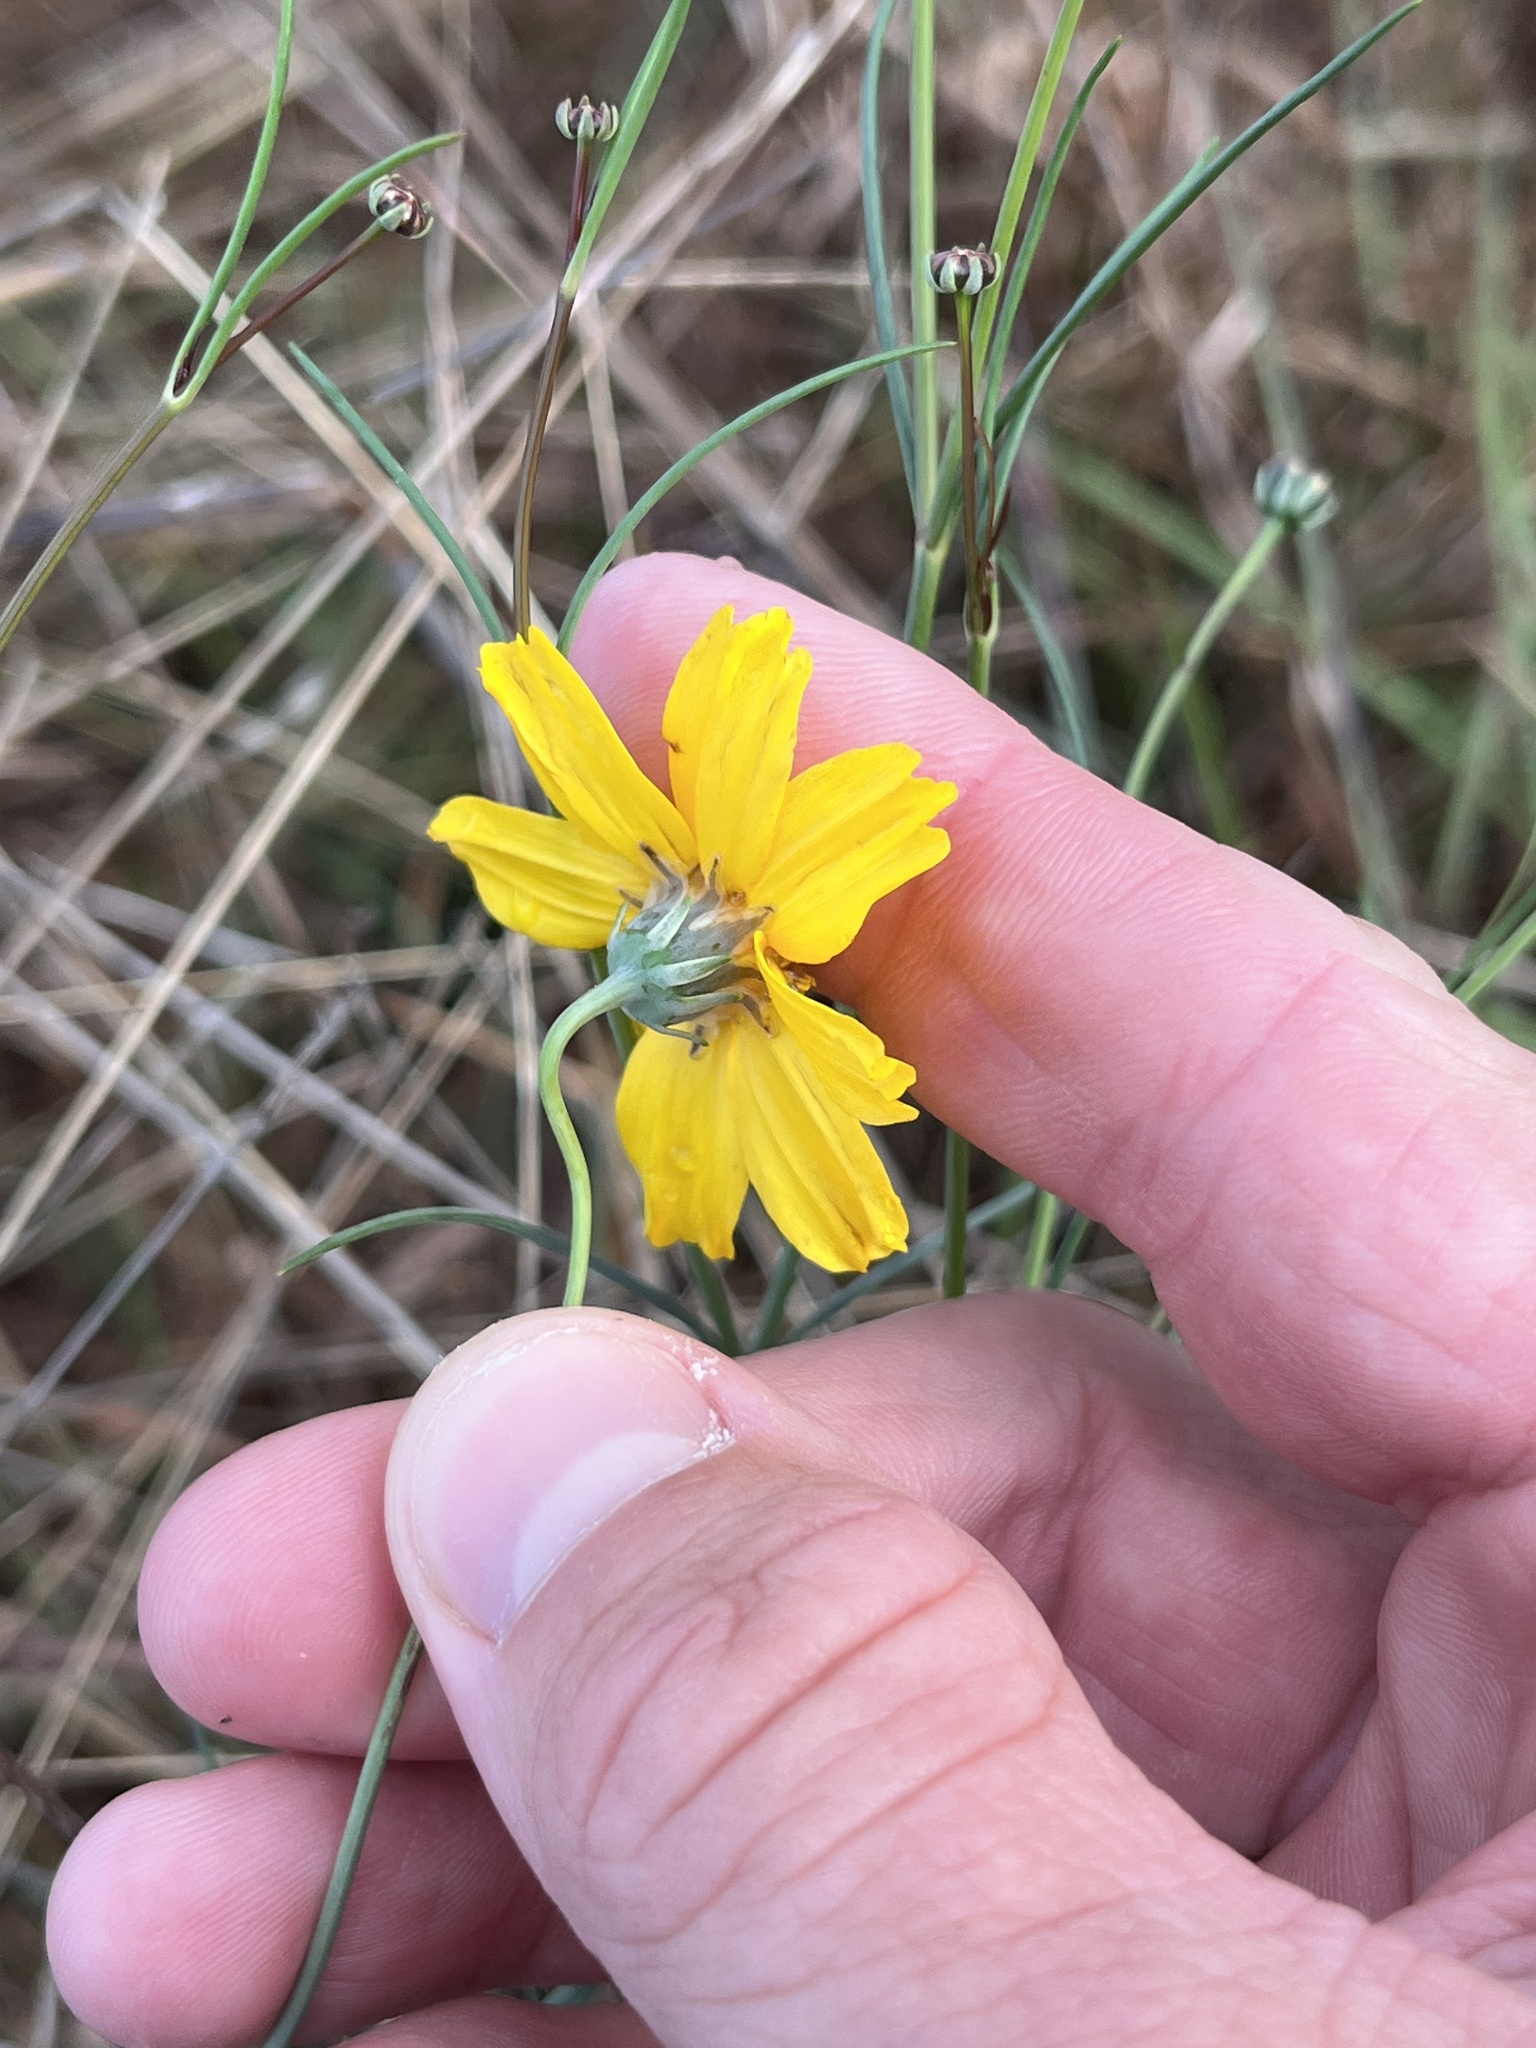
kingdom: Plantae
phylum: Tracheophyta
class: Magnoliopsida
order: Asterales
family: Asteraceae
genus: Thelesperma
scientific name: Thelesperma simplicifolium
